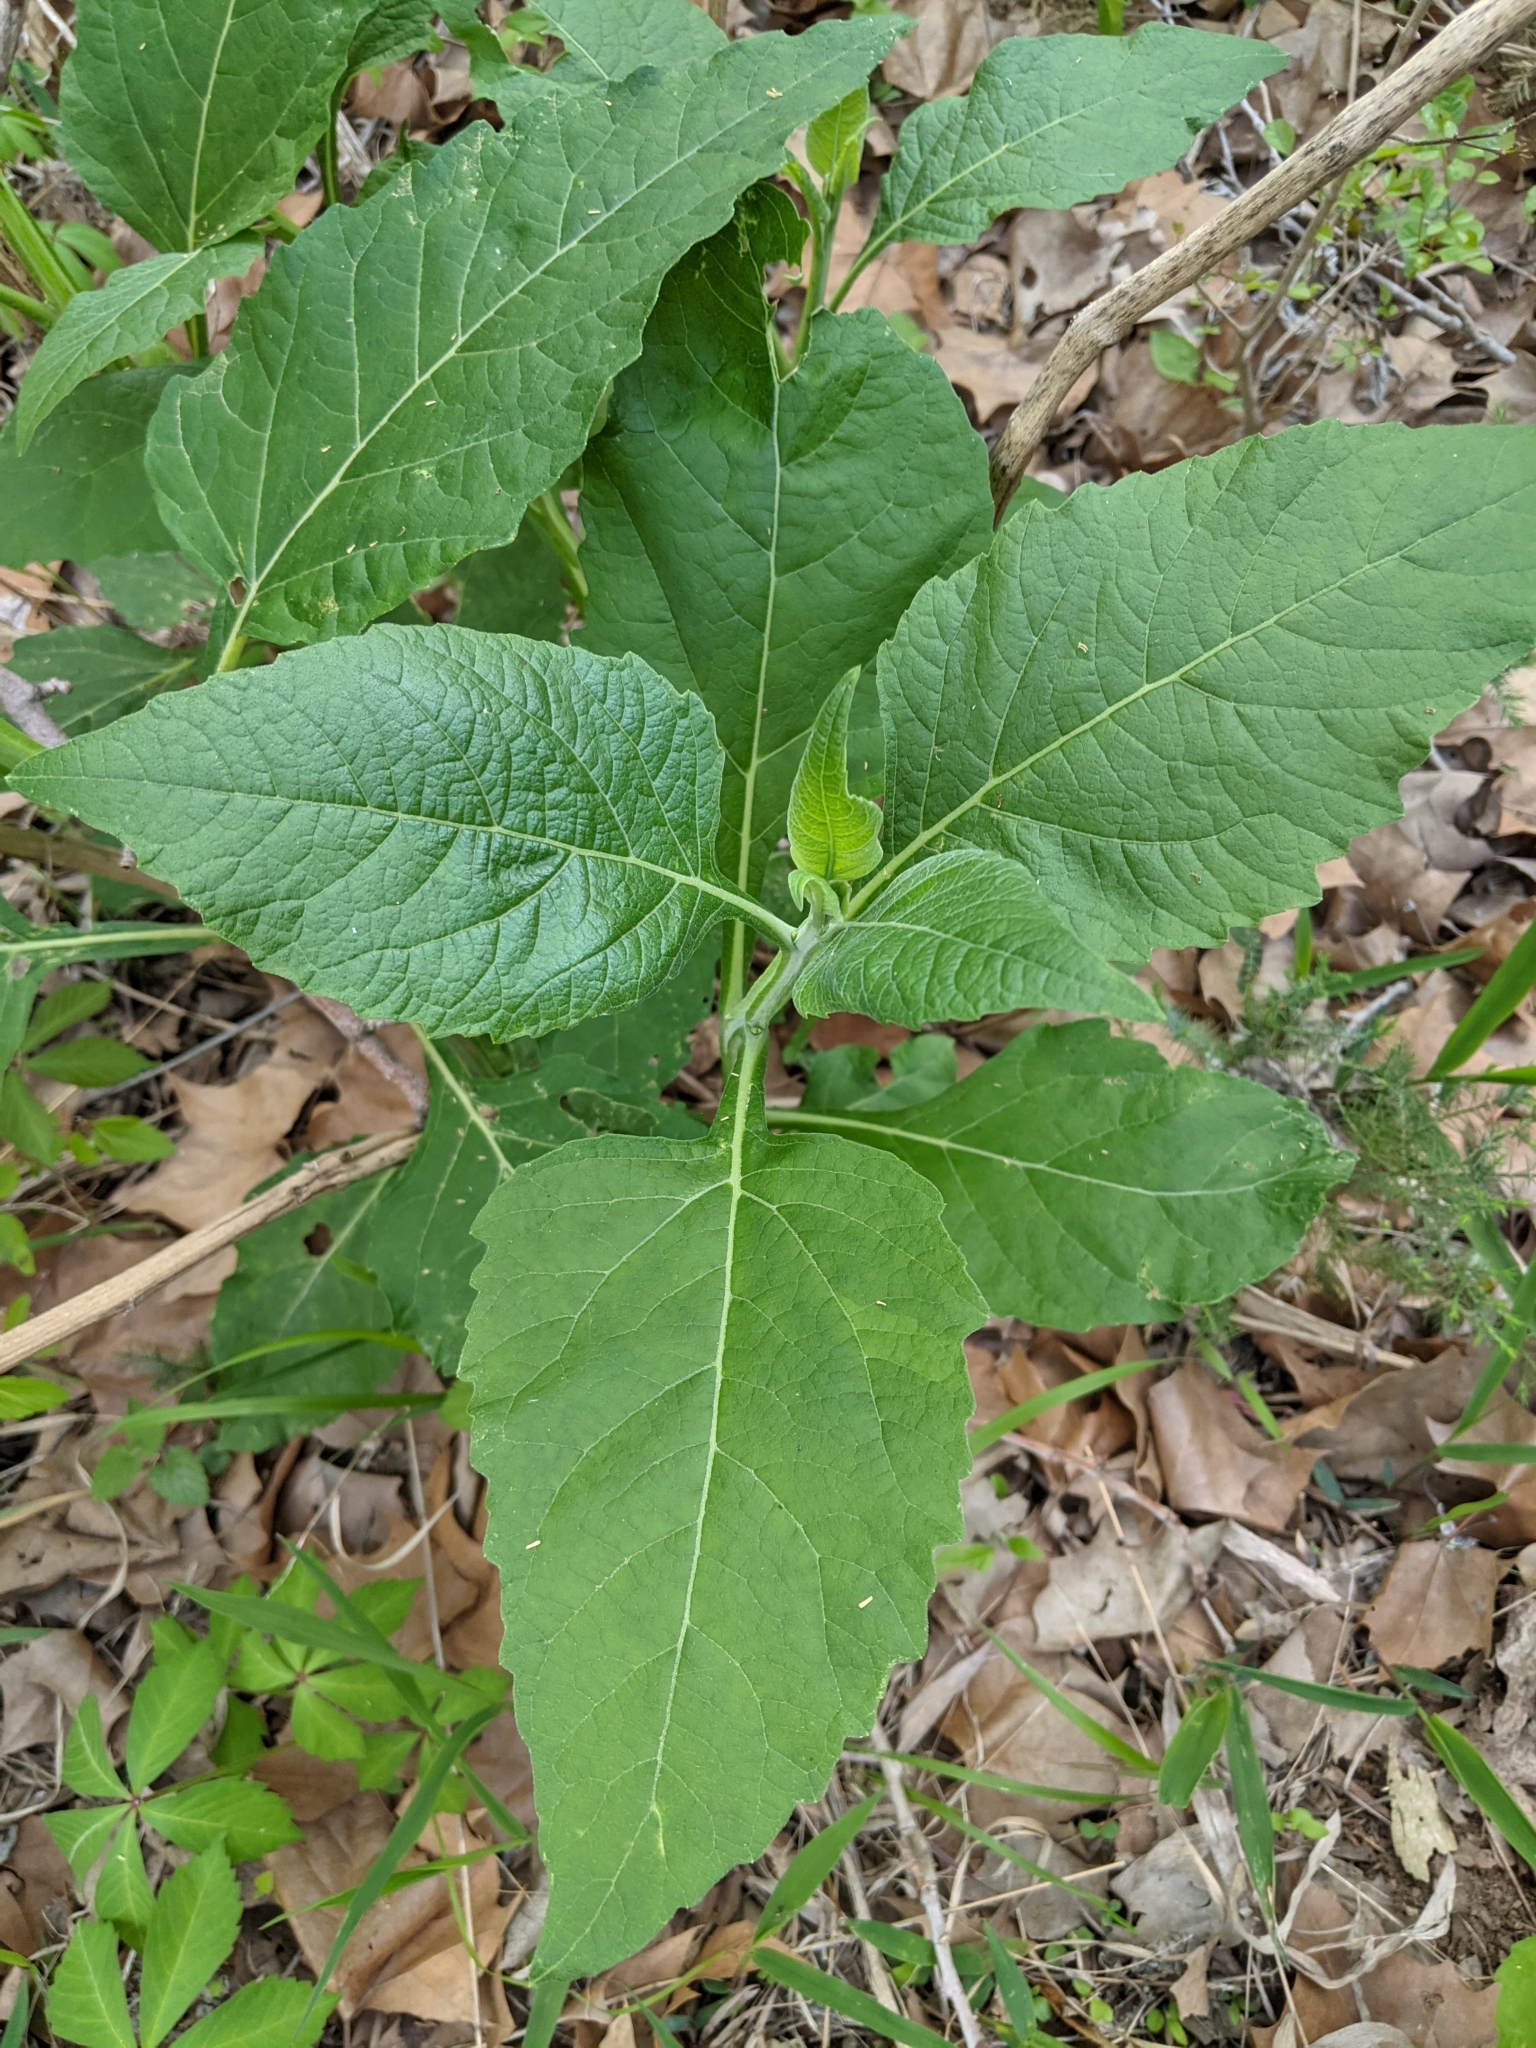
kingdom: Plantae
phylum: Tracheophyta
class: Magnoliopsida
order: Asterales
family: Asteraceae
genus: Verbesina
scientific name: Verbesina virginica
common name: Frostweed
